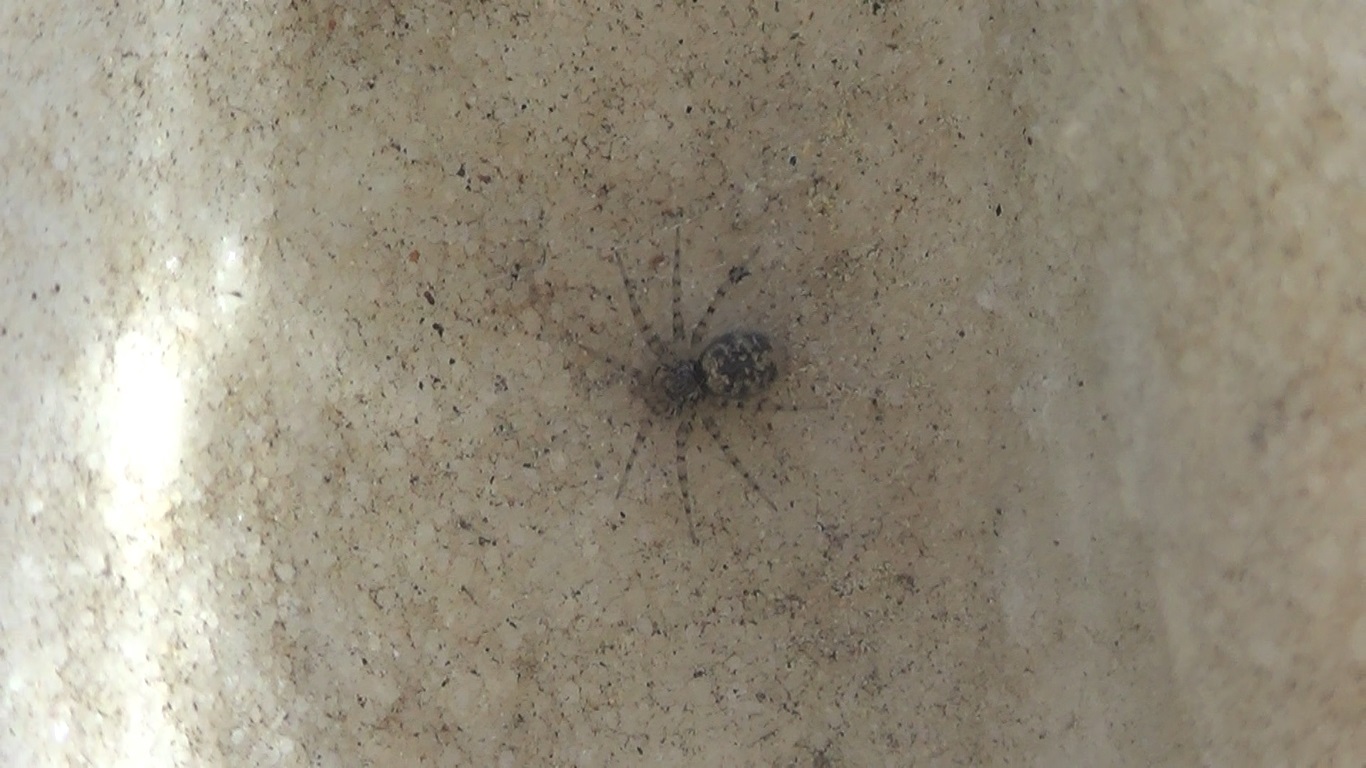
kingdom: Animalia
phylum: Arthropoda
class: Arachnida
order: Araneae
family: Oecobiidae
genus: Oecobius
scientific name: Oecobius maculatus
